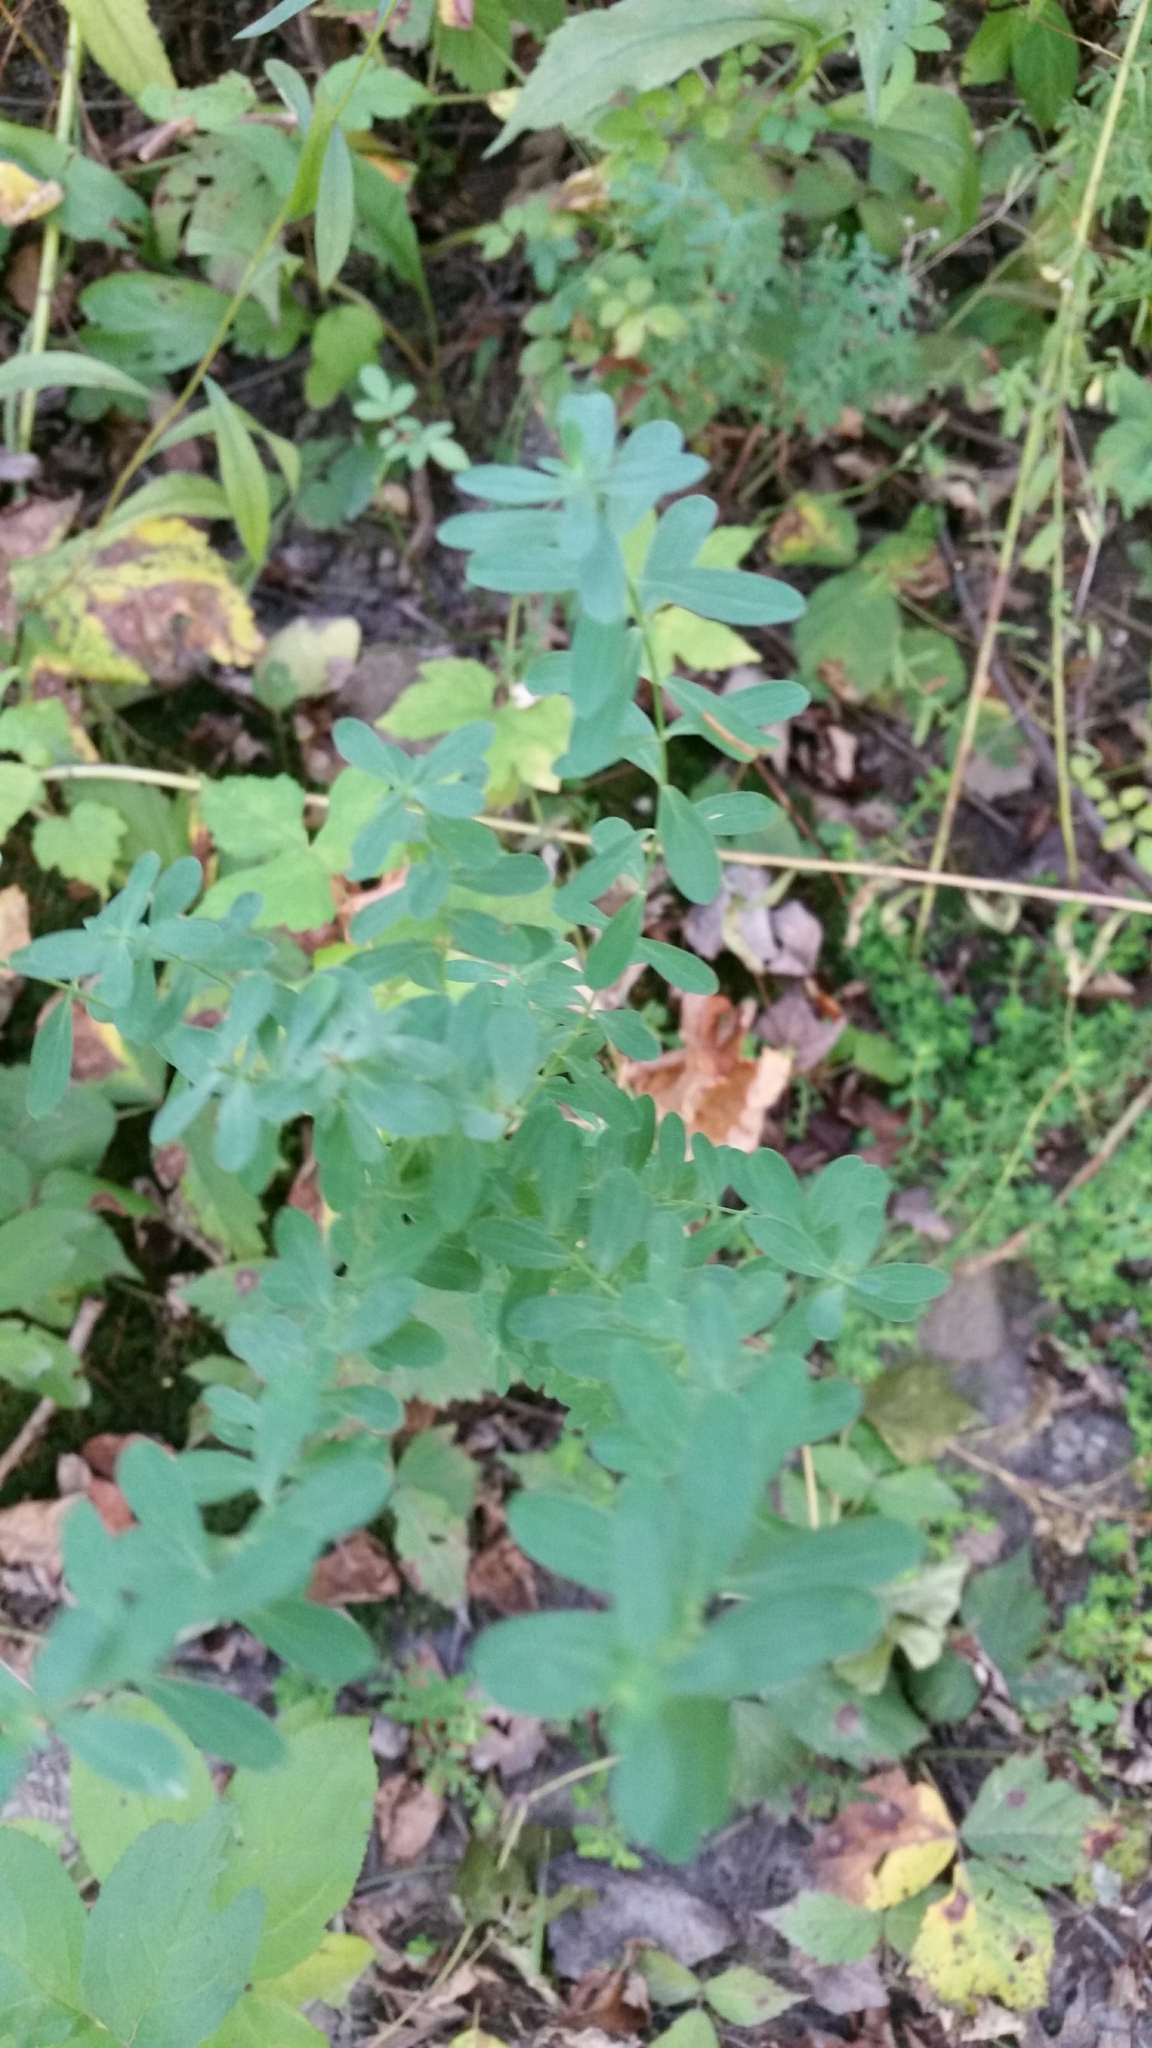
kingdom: Plantae
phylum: Tracheophyta
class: Magnoliopsida
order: Malpighiales
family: Hypericaceae
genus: Hypericum
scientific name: Hypericum perforatum
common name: Common st. johnswort
